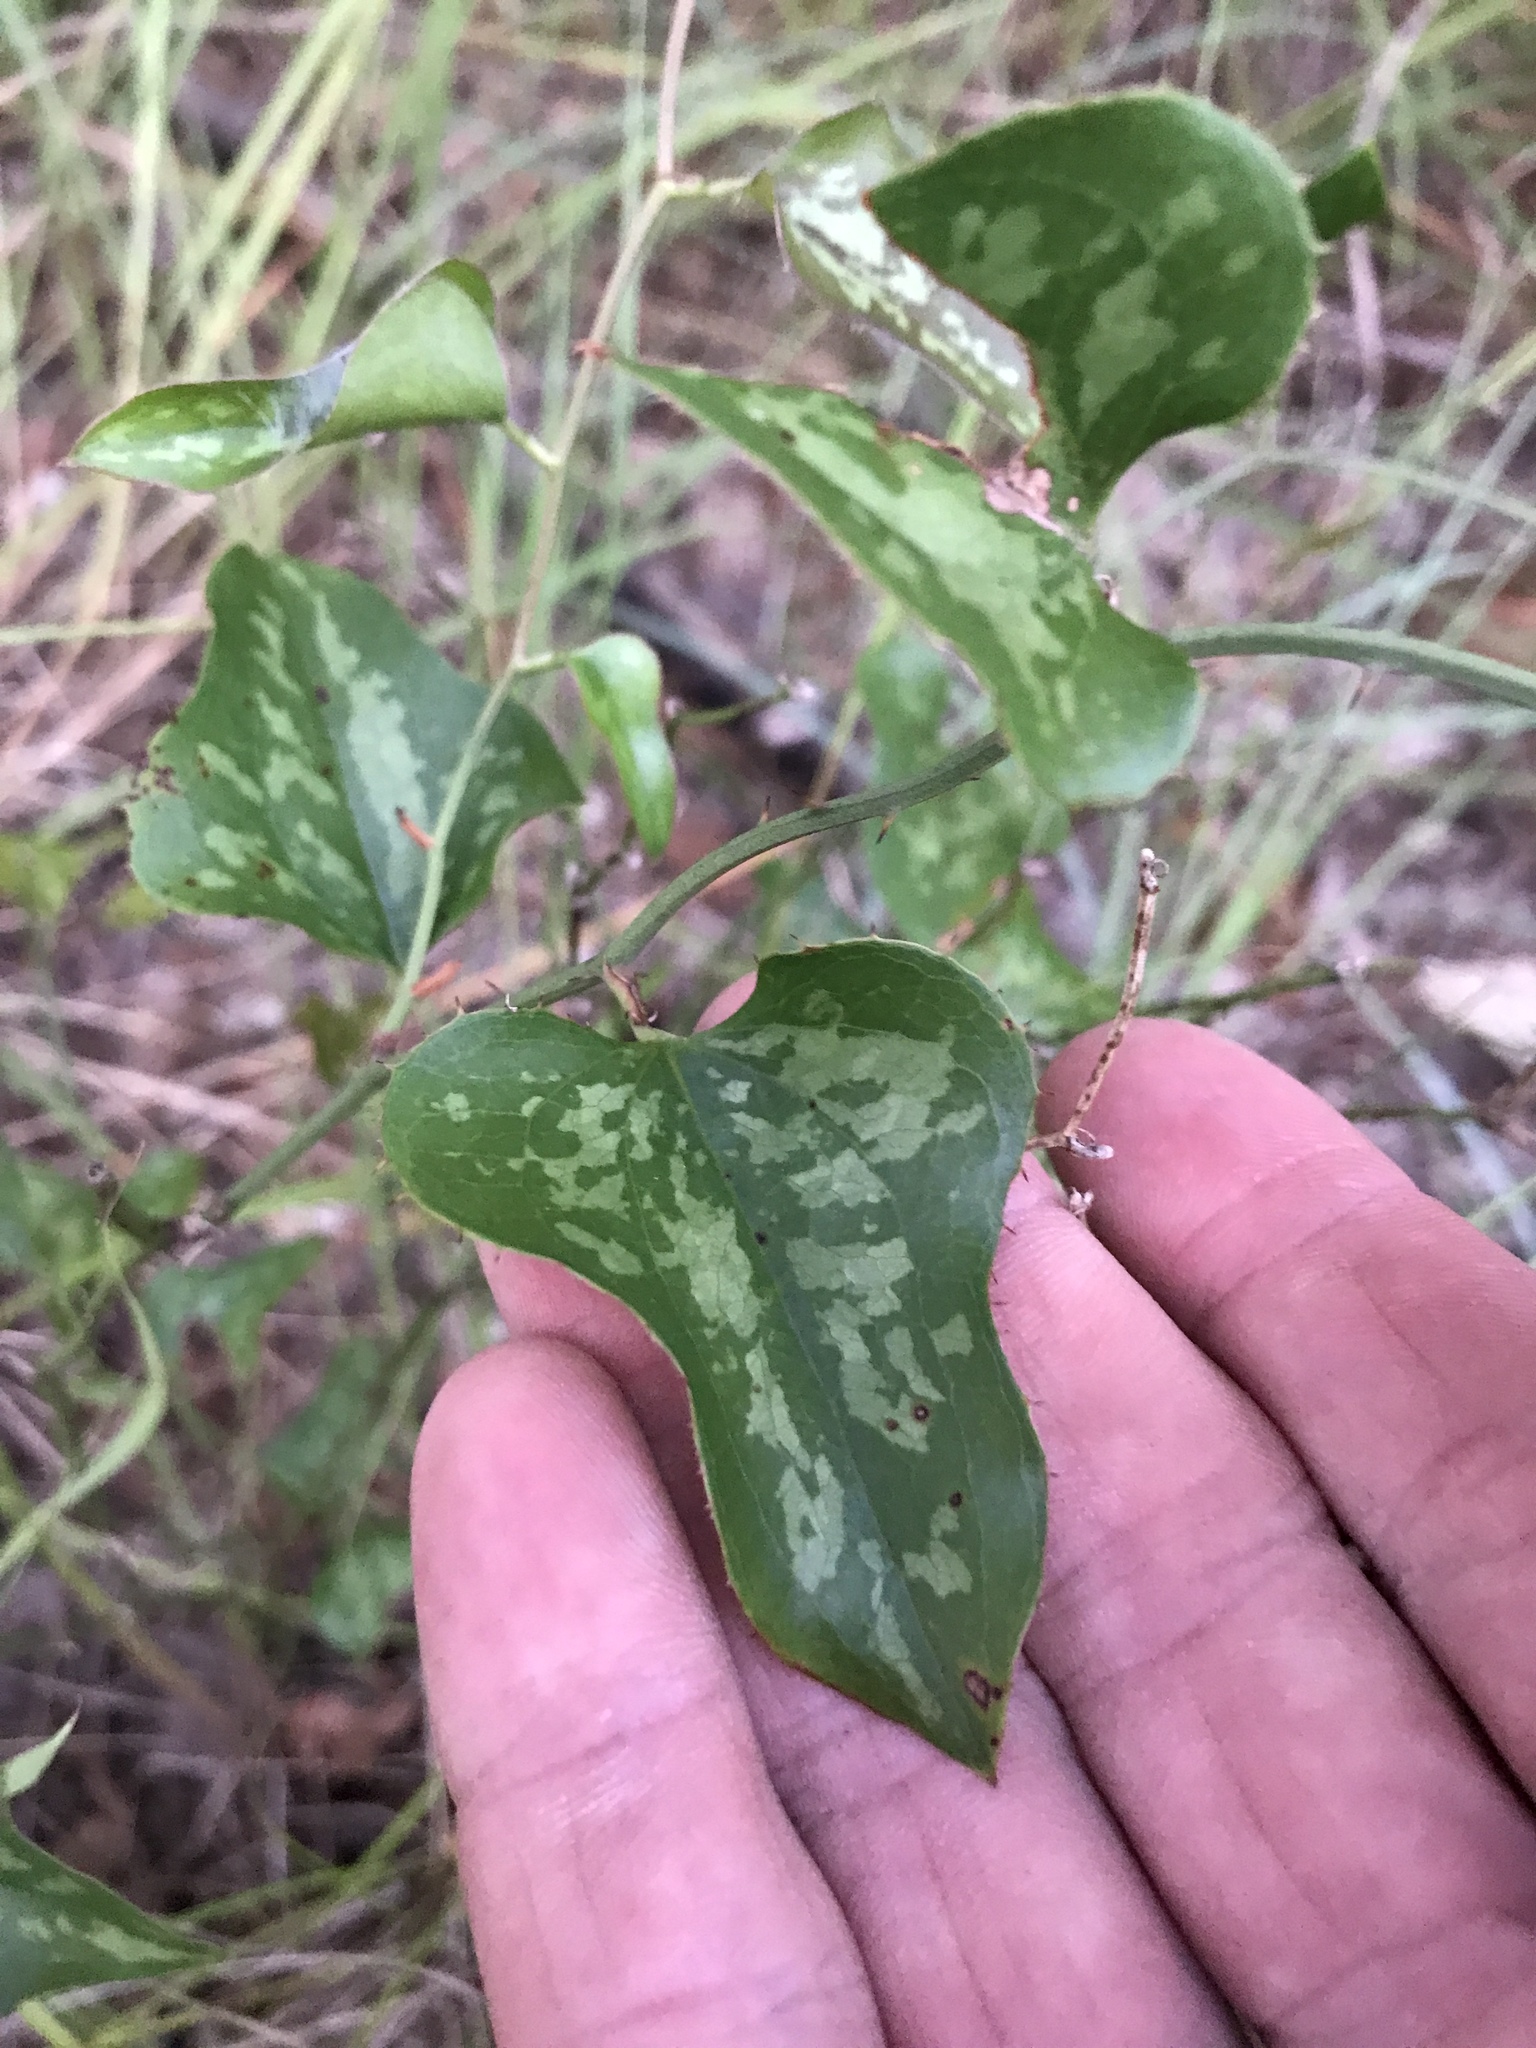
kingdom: Plantae
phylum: Tracheophyta
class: Liliopsida
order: Liliales
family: Smilacaceae
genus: Smilax
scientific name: Smilax bona-nox
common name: Catbrier
